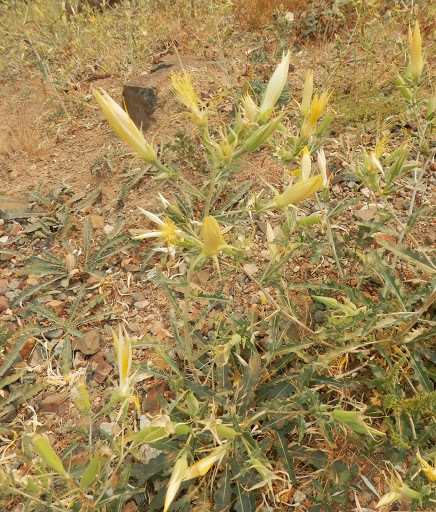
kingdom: Plantae
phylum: Tracheophyta
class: Magnoliopsida
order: Cornales
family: Loasaceae
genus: Mentzelia
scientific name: Mentzelia laevicaulis
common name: Smooth-stem blazingstar
